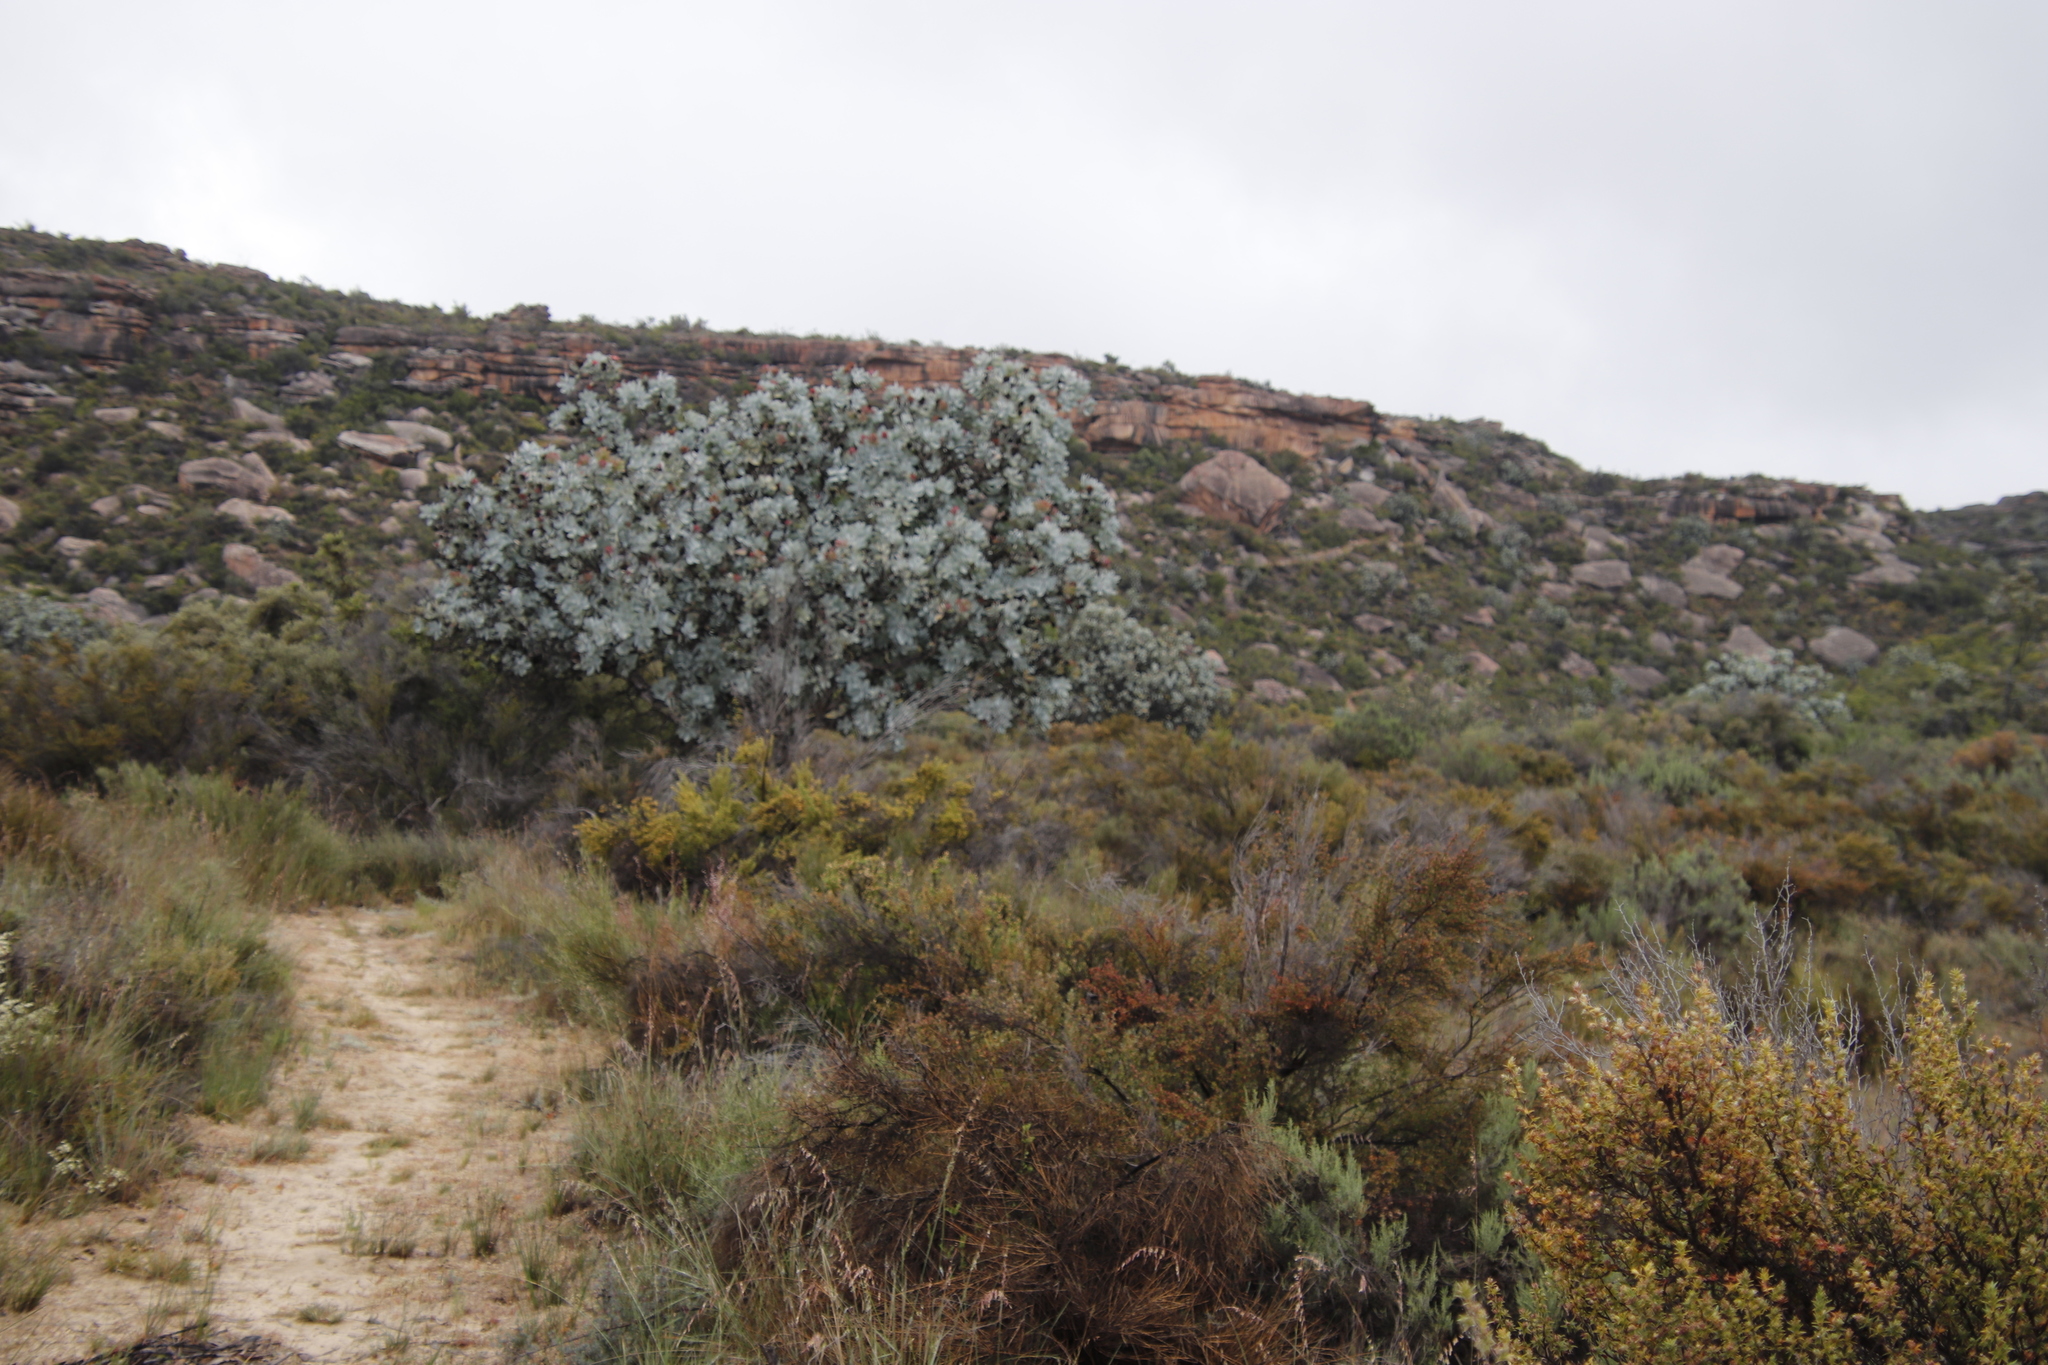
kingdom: Plantae
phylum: Tracheophyta
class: Magnoliopsida
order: Proteales
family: Proteaceae
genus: Protea
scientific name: Protea nitida
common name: Tree protea
